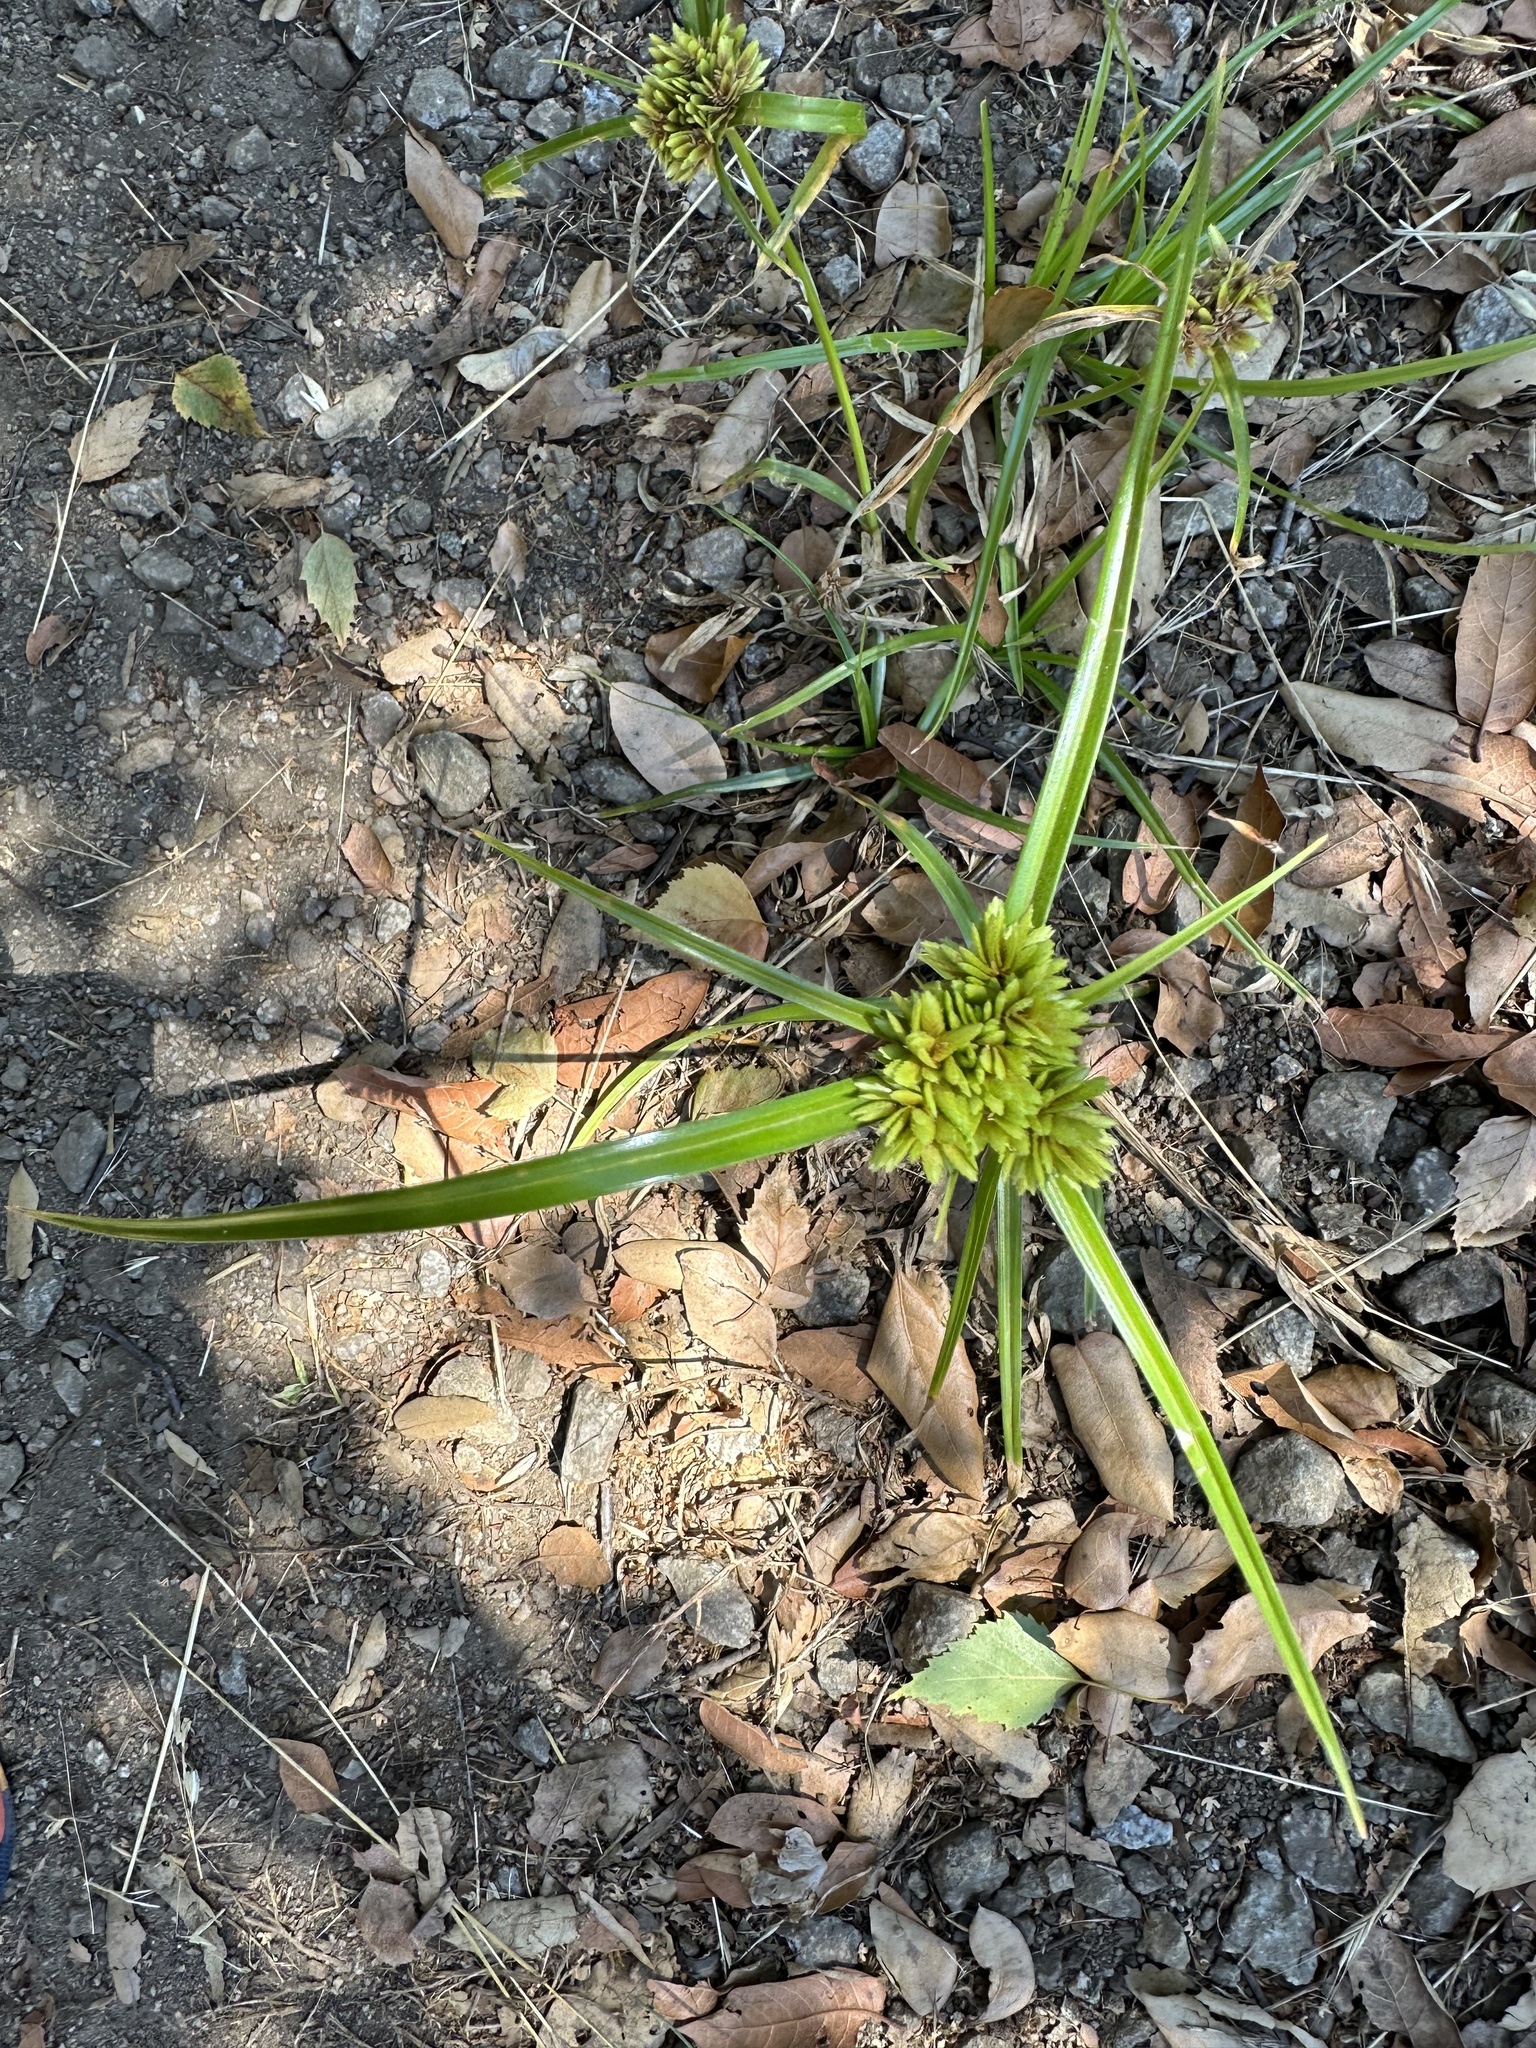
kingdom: Plantae
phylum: Tracheophyta
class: Liliopsida
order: Poales
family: Cyperaceae
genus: Cyperus
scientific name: Cyperus eragrostis
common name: Tall flatsedge
